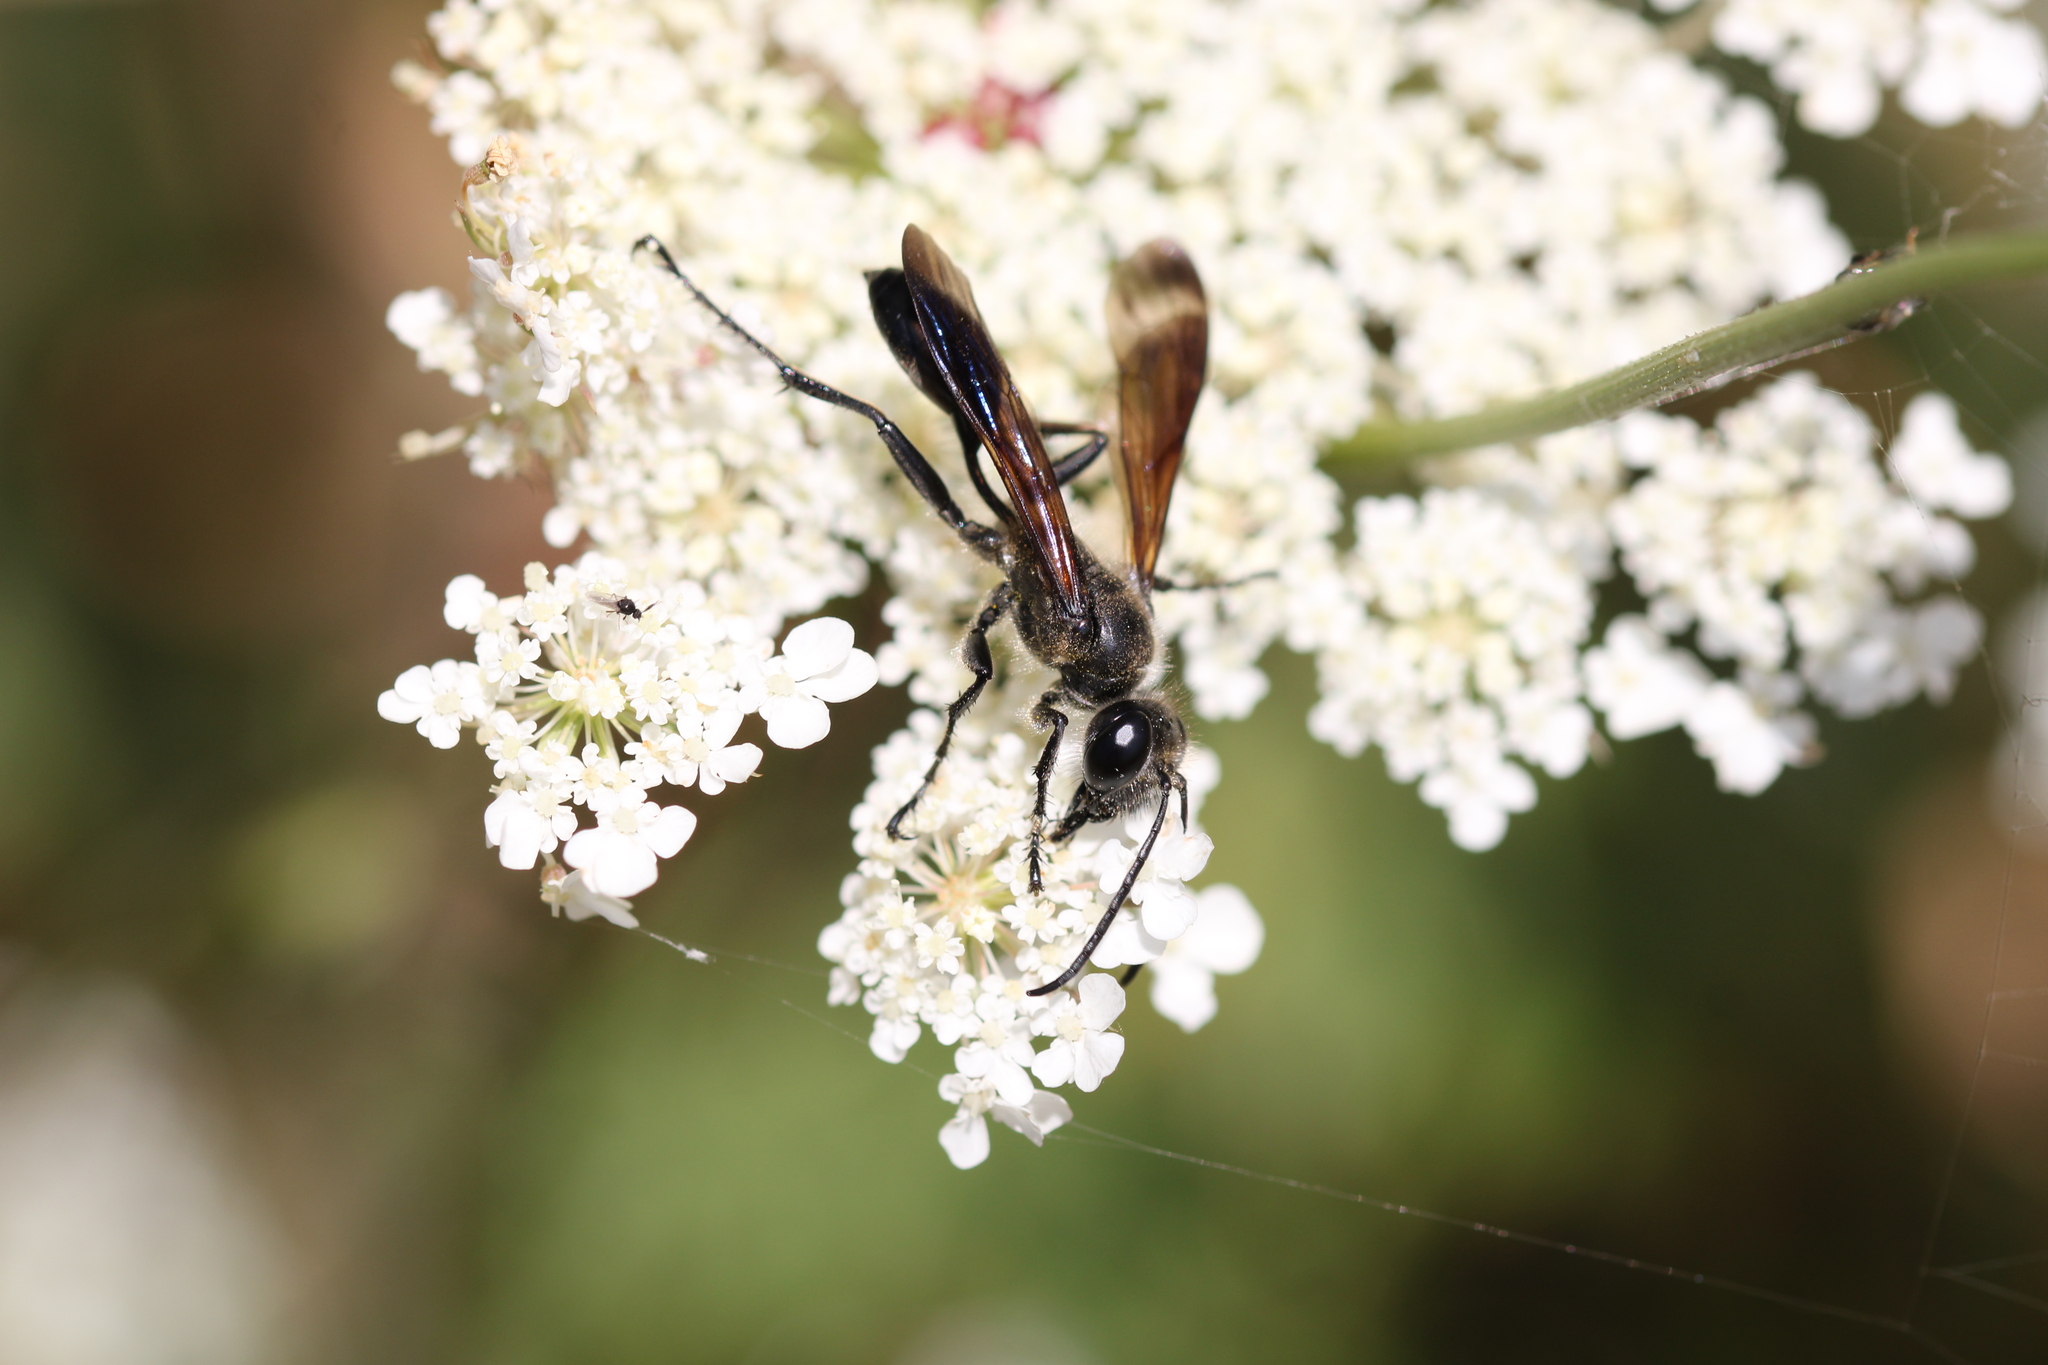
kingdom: Animalia
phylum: Arthropoda
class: Insecta
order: Hymenoptera
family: Sphecidae
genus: Isodontia
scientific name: Isodontia mexicana
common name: Mud dauber
